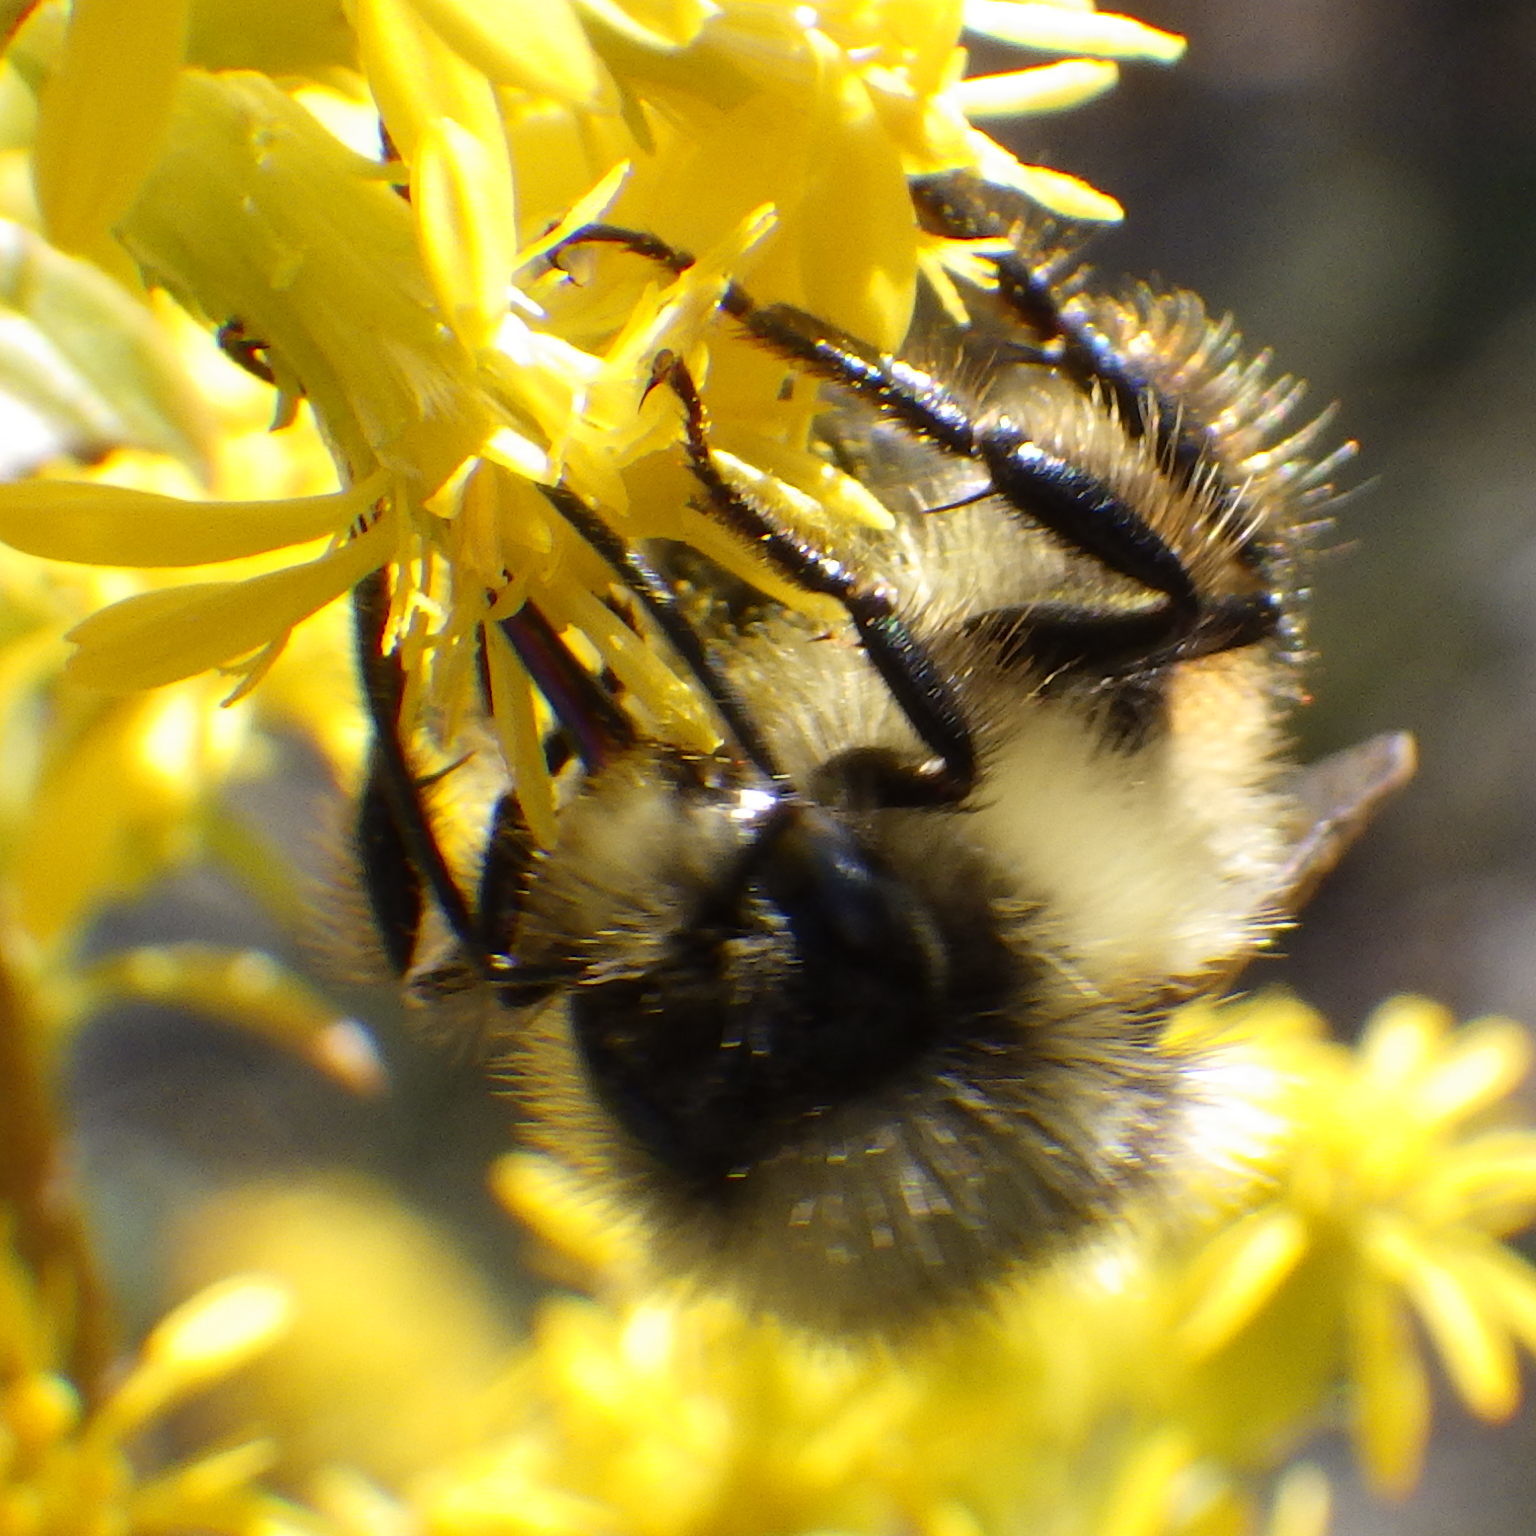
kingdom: Animalia
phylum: Arthropoda
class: Insecta
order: Hymenoptera
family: Apidae
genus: Bombus
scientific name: Bombus ternarius
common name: Tri-colored bumble bee
